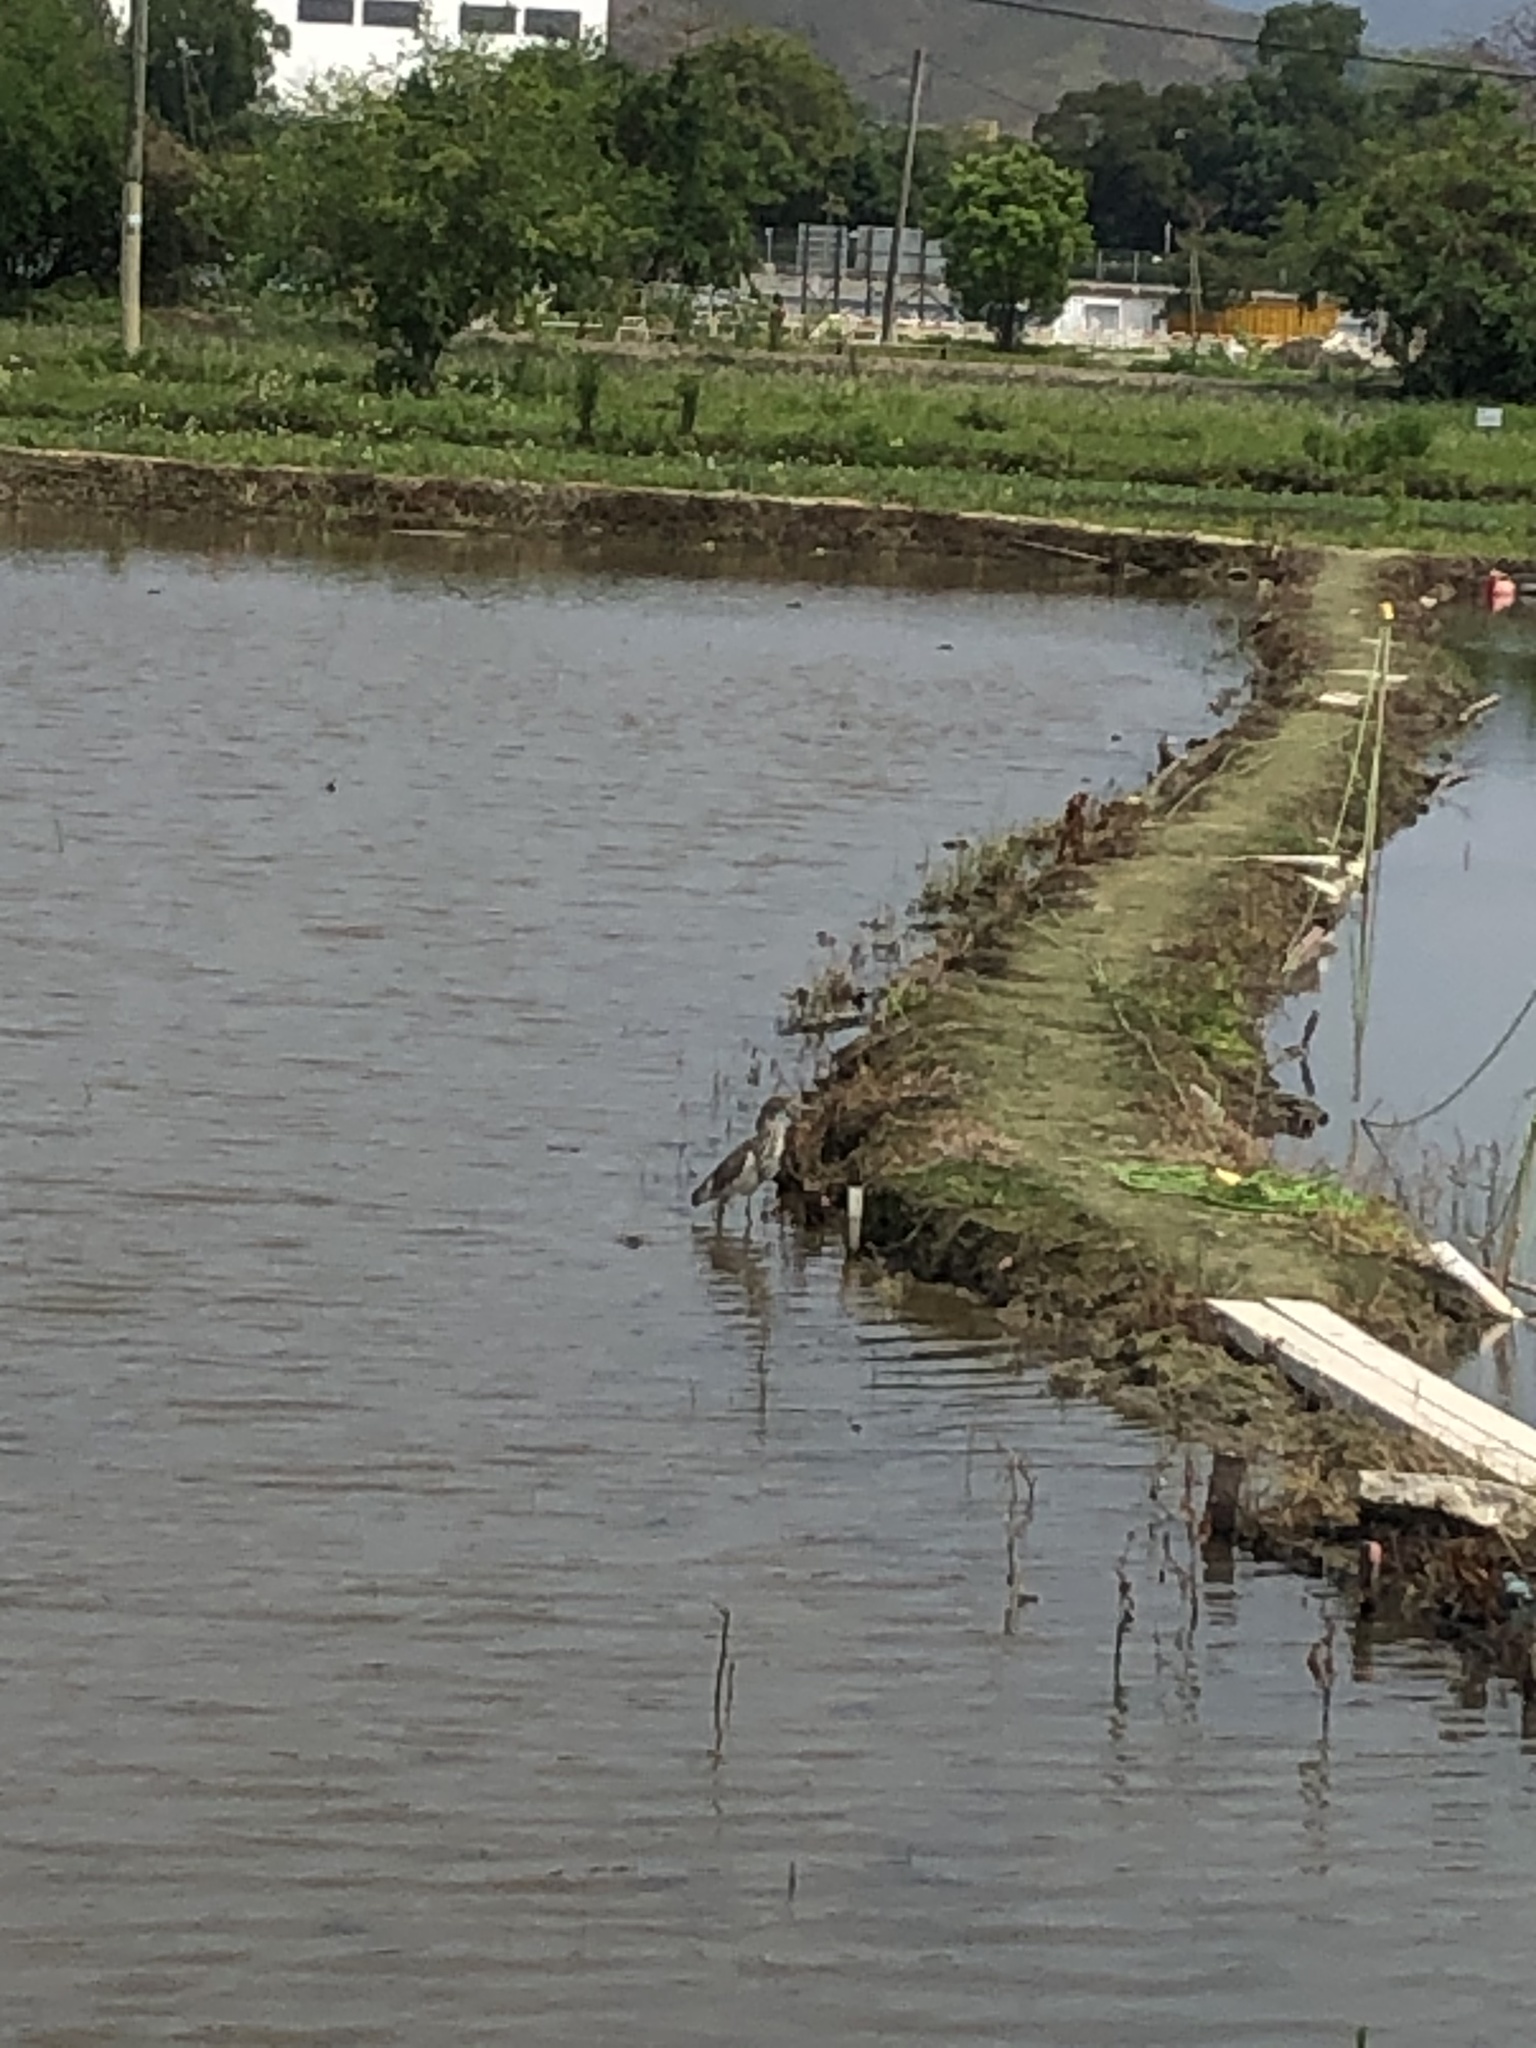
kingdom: Animalia
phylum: Chordata
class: Aves
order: Pelecaniformes
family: Ardeidae
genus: Ardeola
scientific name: Ardeola bacchus
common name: Chinese pond heron
